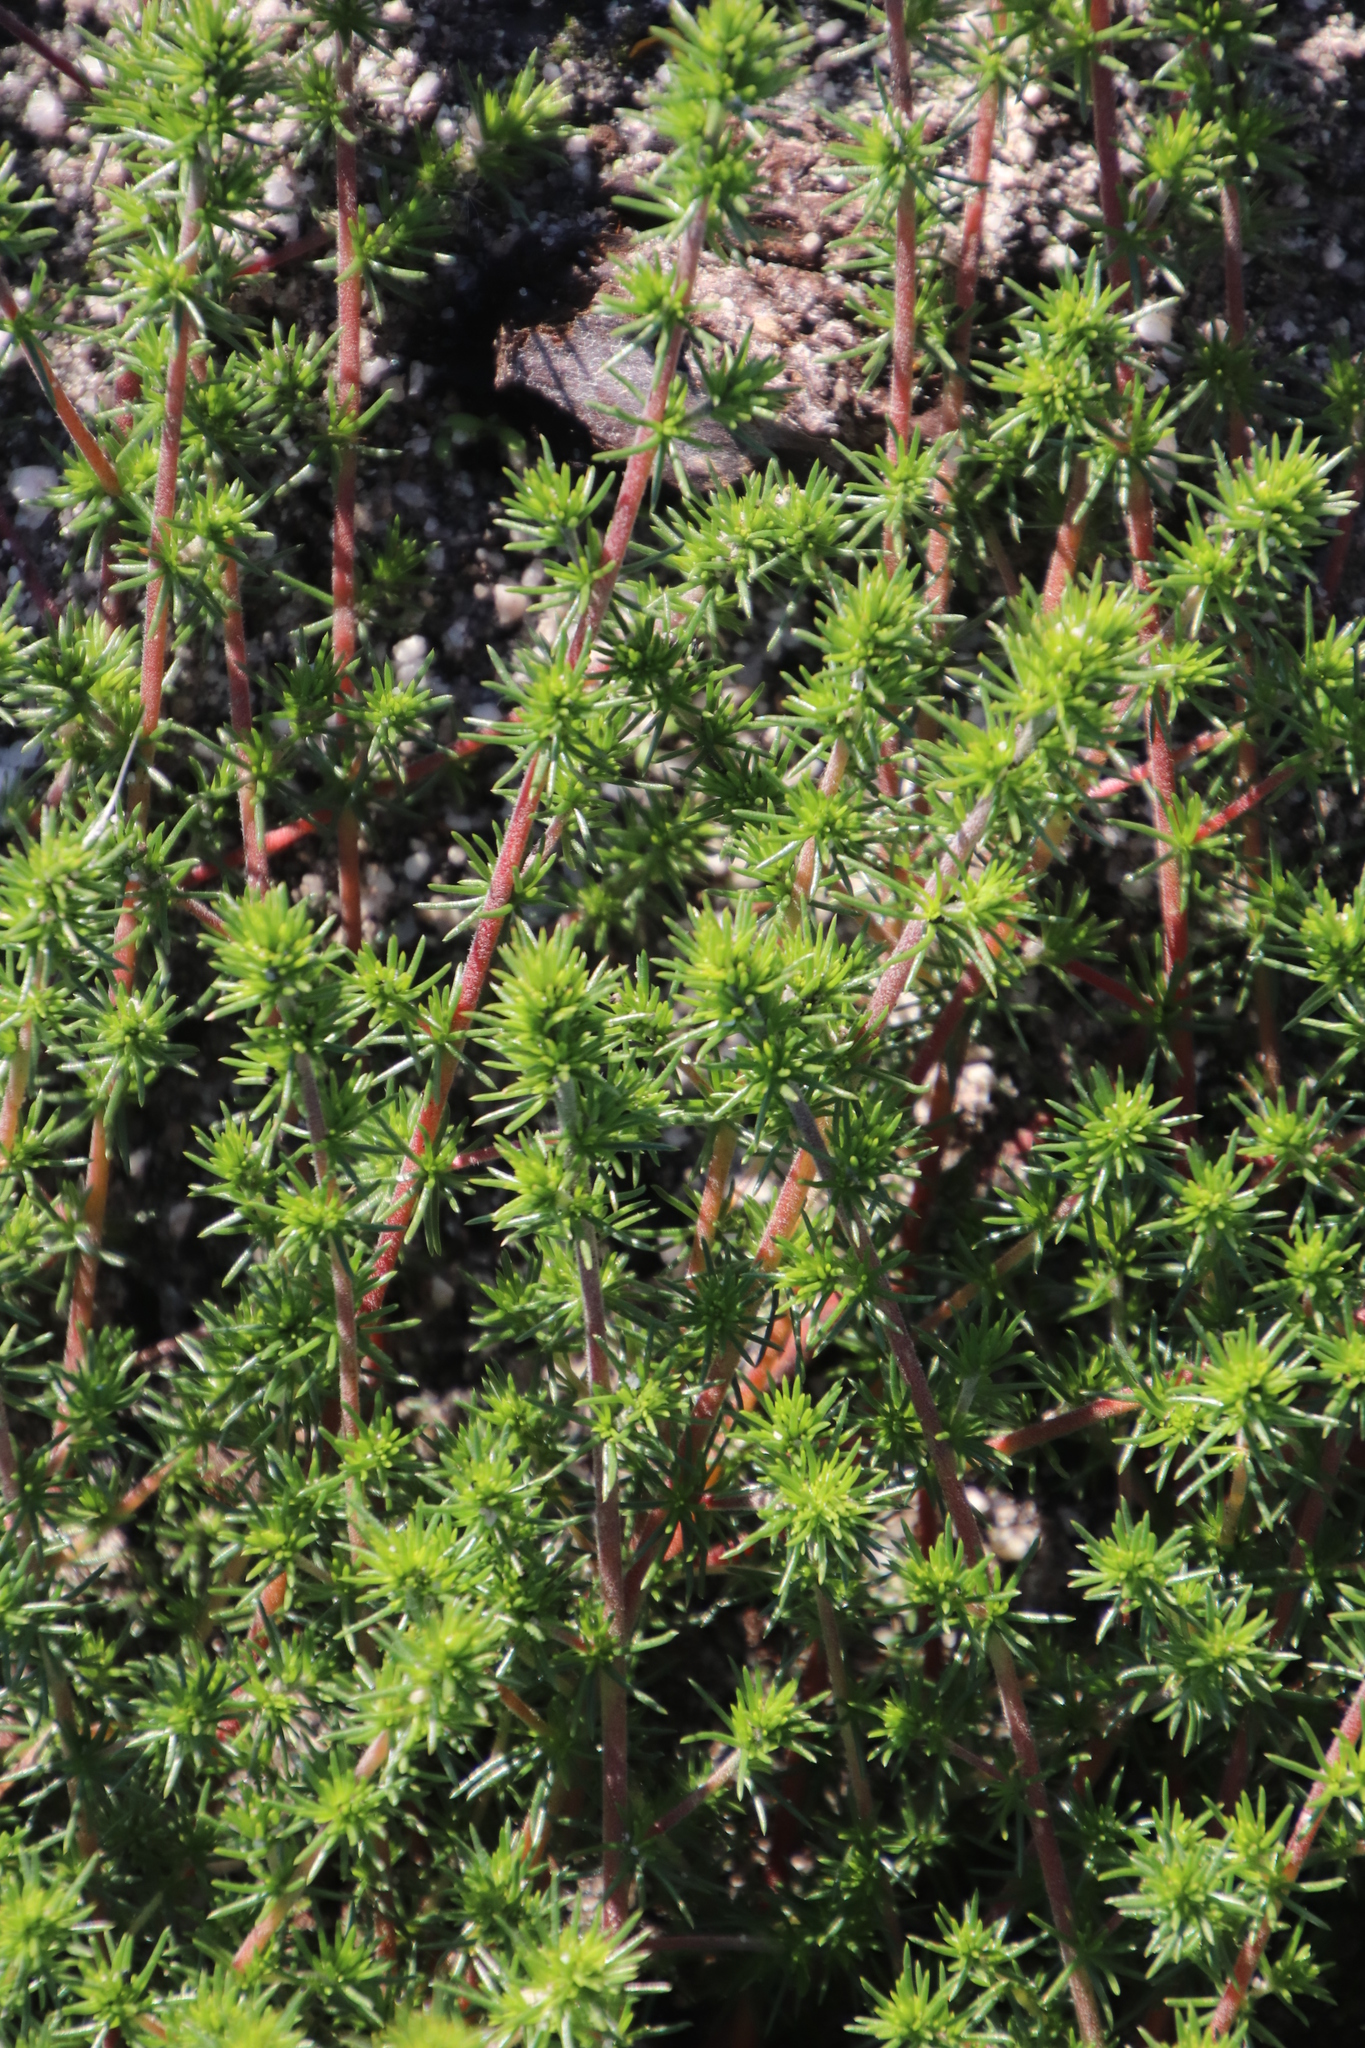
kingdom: Plantae
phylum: Tracheophyta
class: Magnoliopsida
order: Fabales
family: Fabaceae
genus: Aspalathus
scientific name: Aspalathus retroflexa
